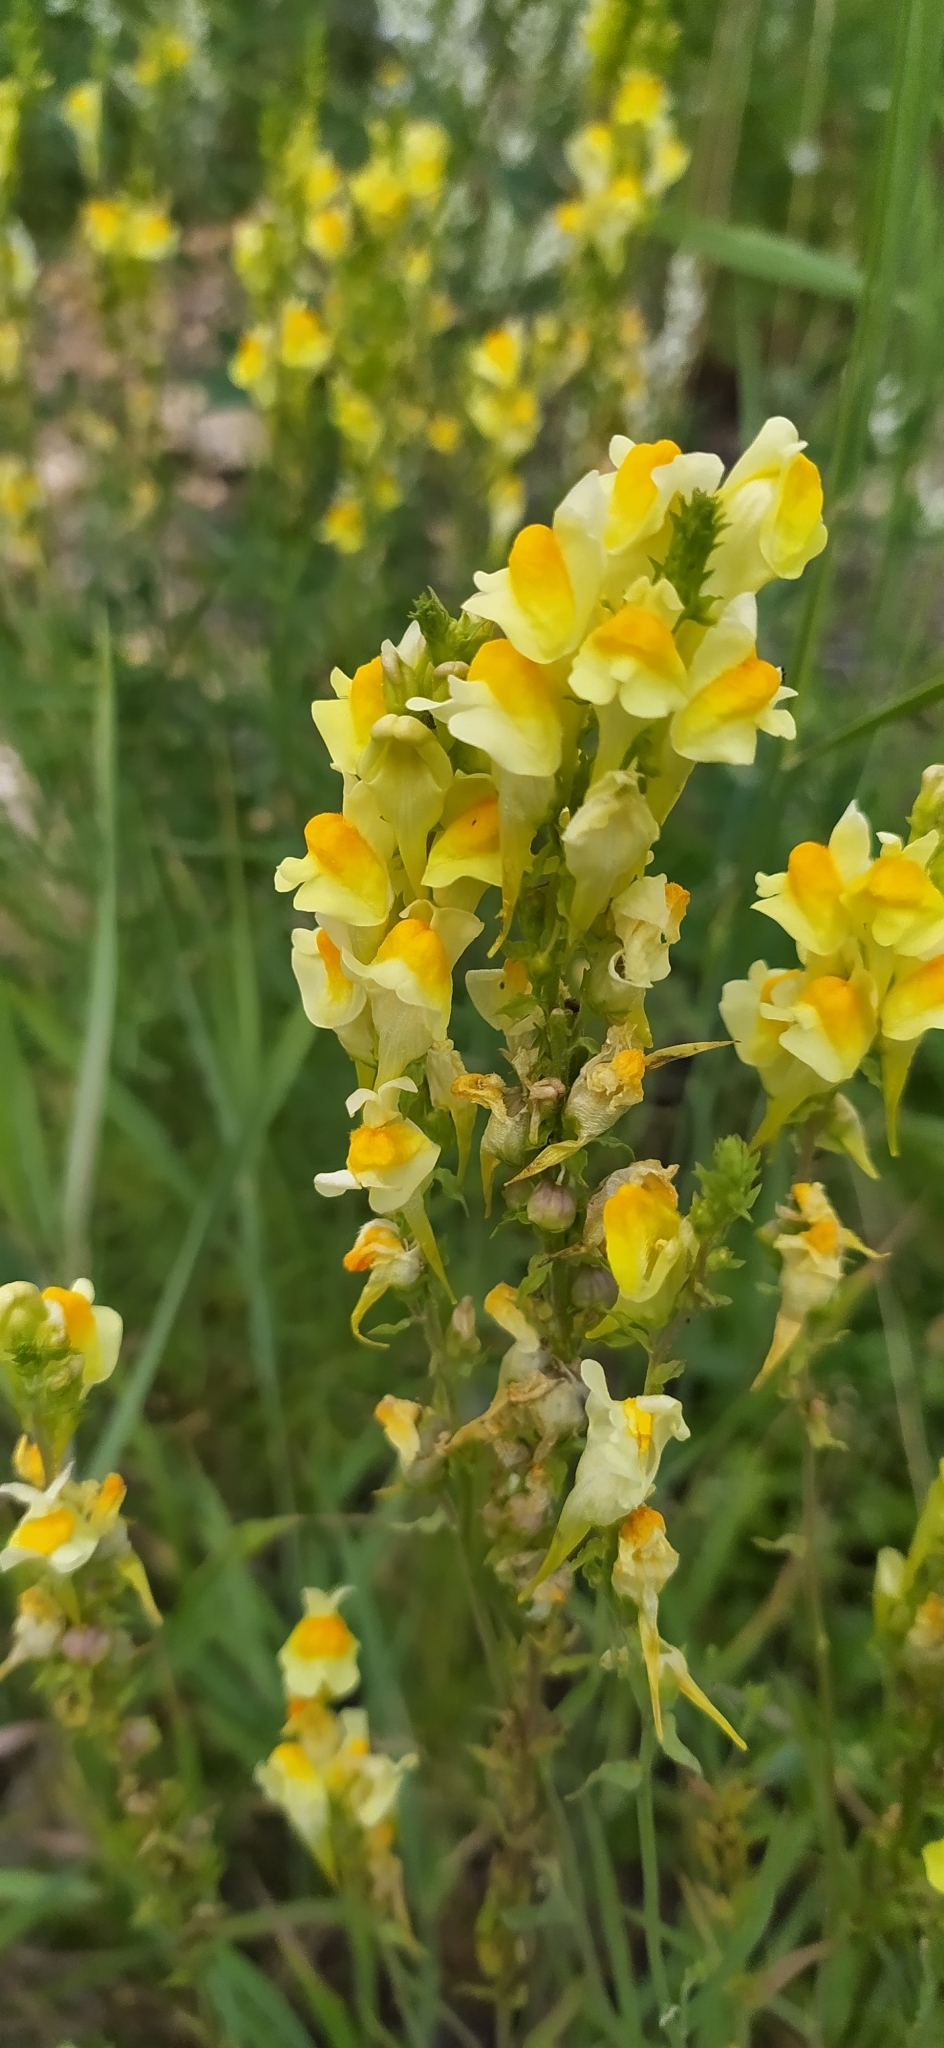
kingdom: Plantae
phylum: Tracheophyta
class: Magnoliopsida
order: Lamiales
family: Plantaginaceae
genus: Linaria
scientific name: Linaria vulgaris
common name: Butter and eggs
